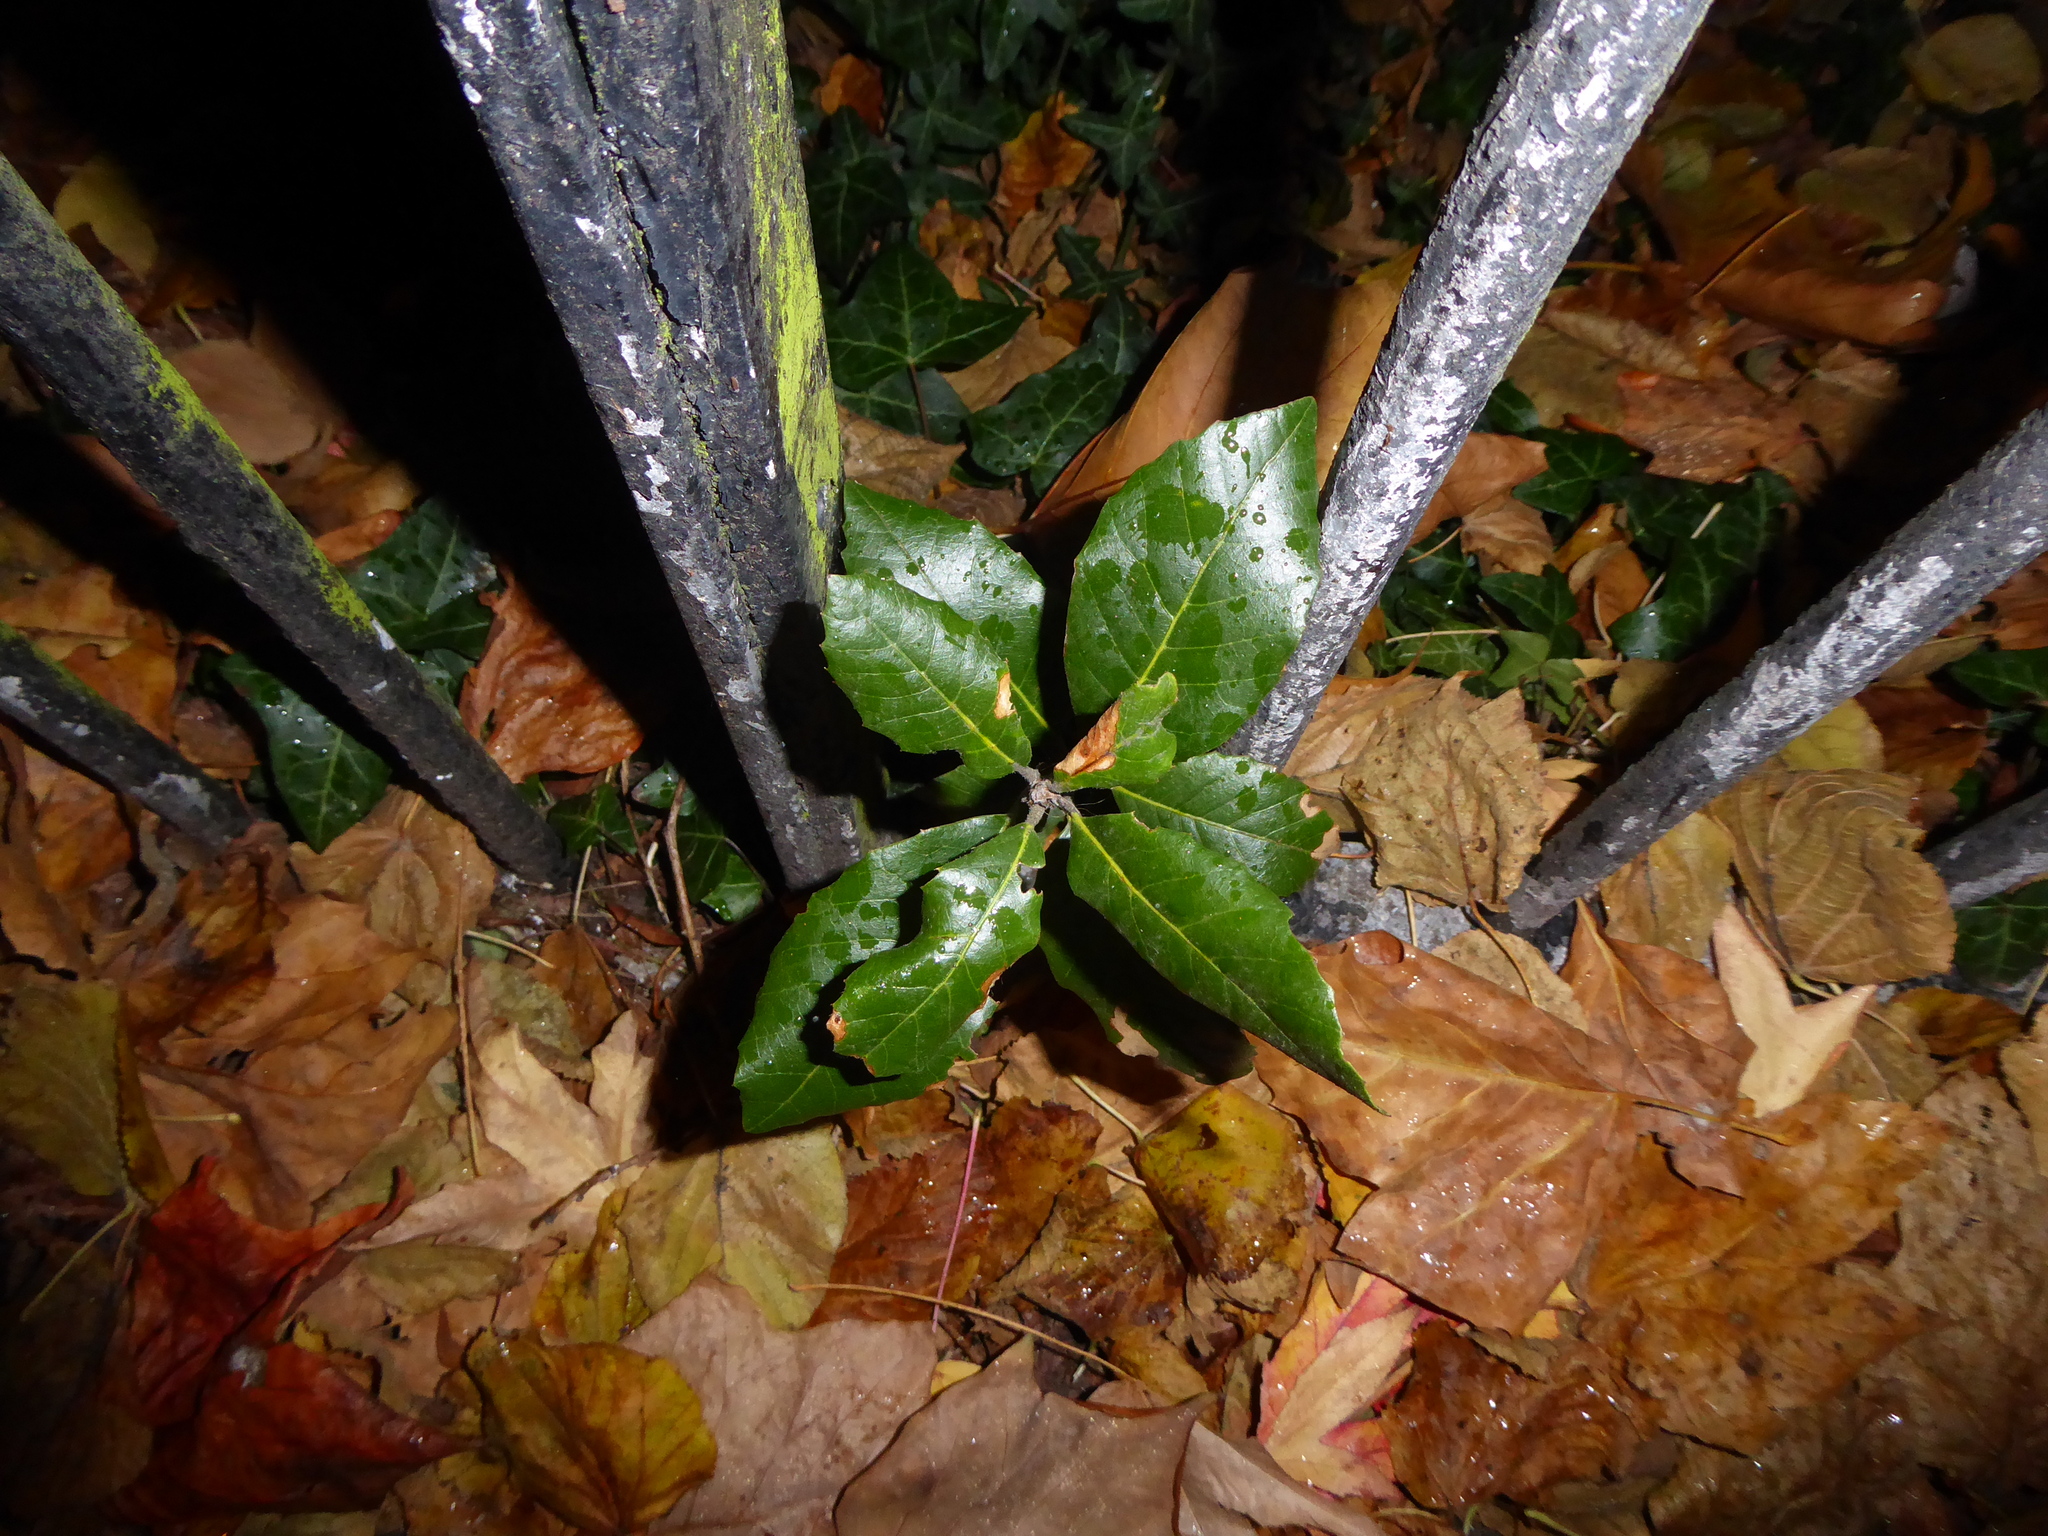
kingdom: Plantae
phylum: Tracheophyta
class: Magnoliopsida
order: Fagales
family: Fagaceae
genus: Quercus
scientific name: Quercus ilex
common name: Evergreen oak
